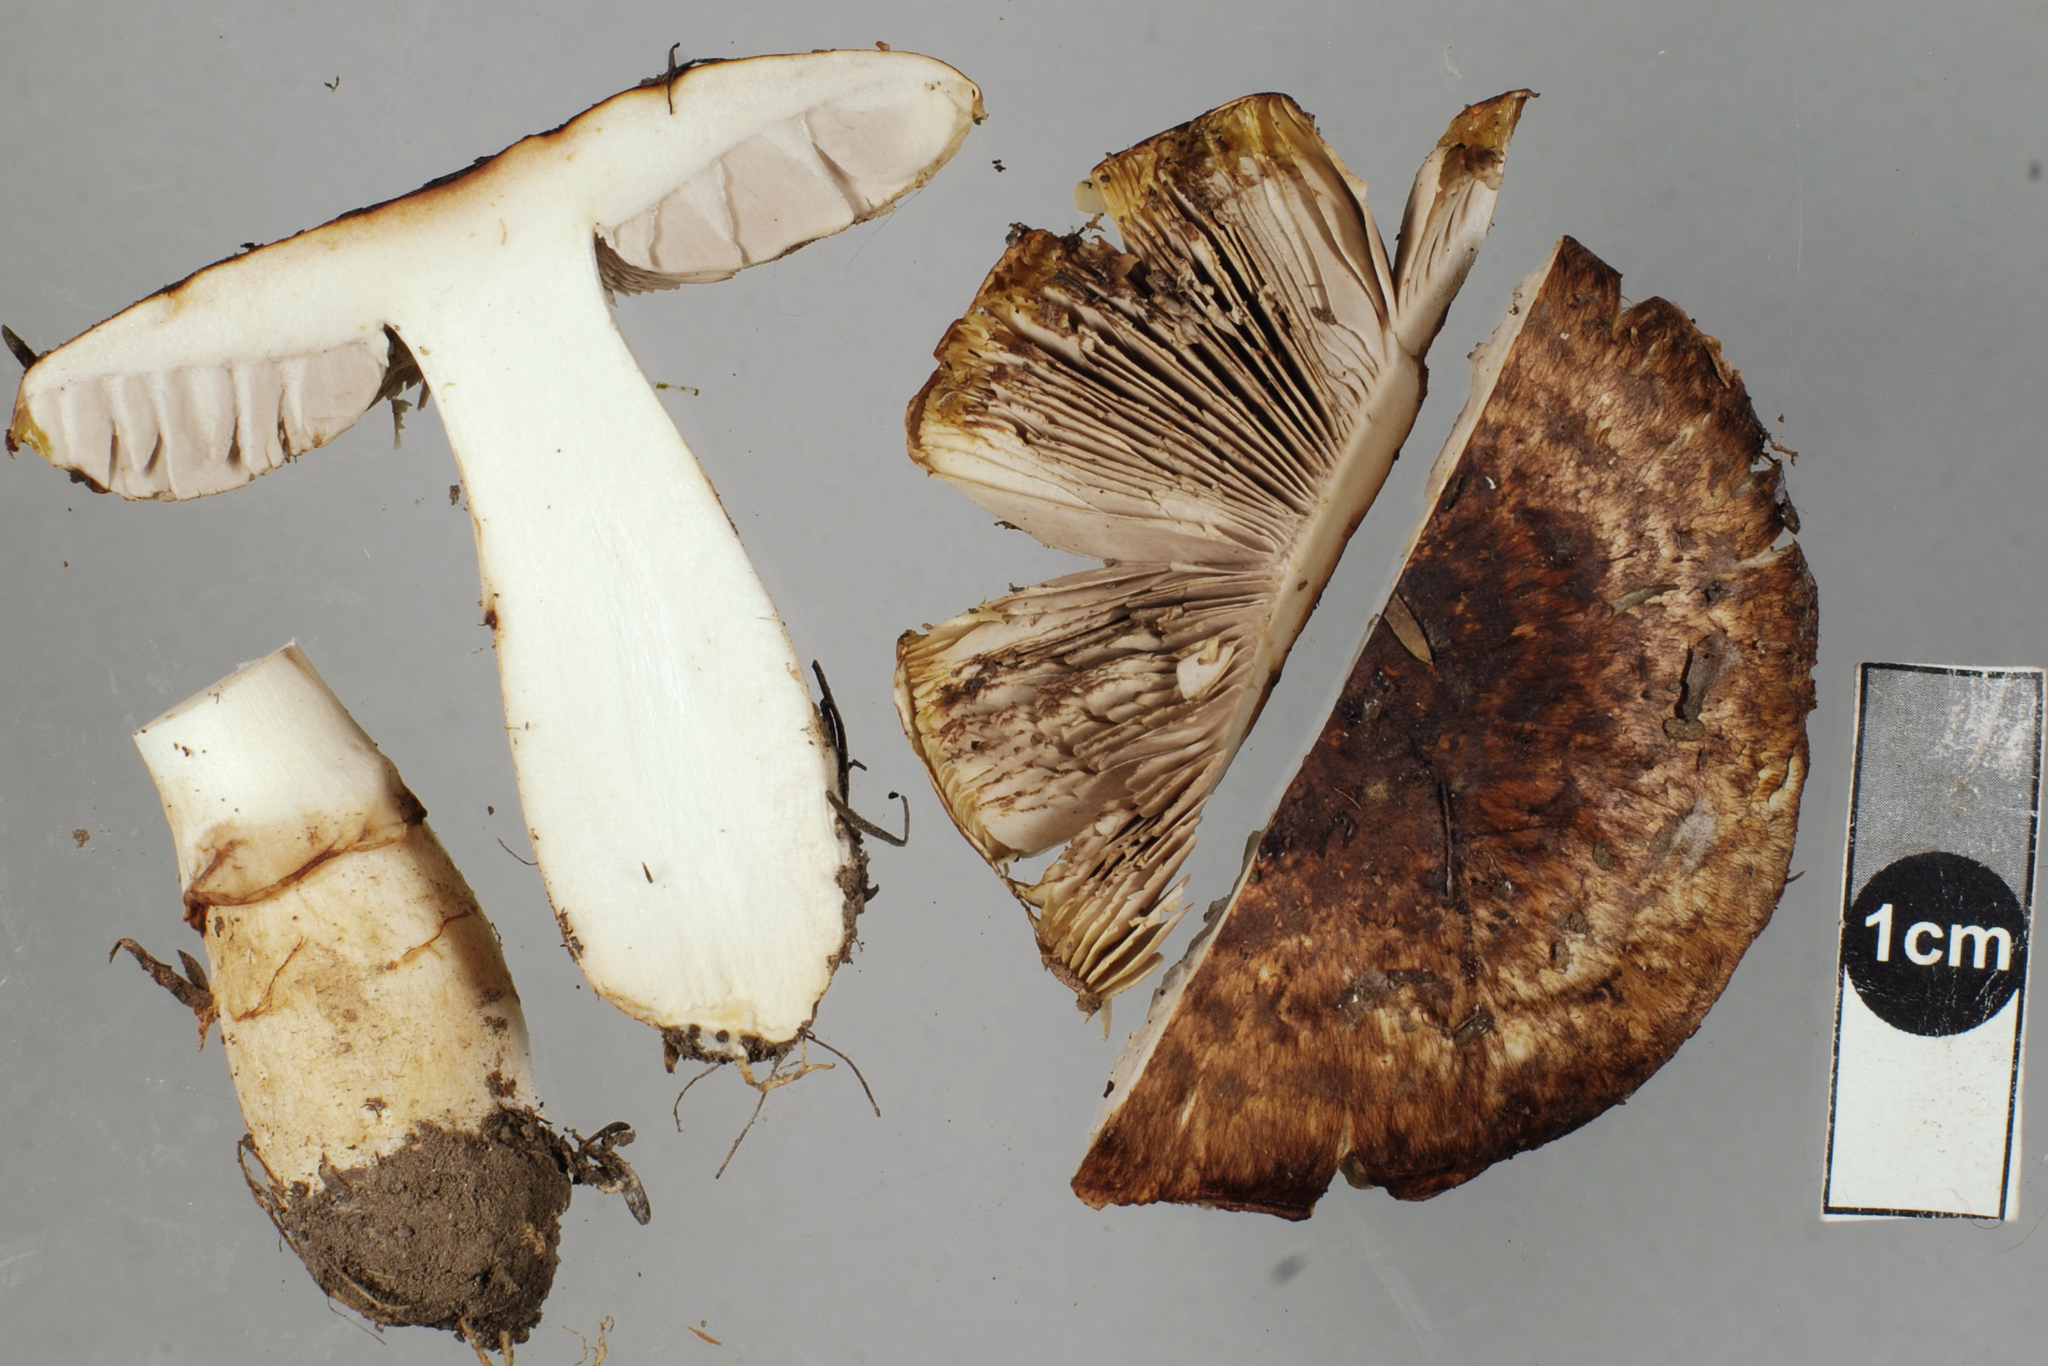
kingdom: Fungi
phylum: Basidiomycota
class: Agaricomycetes
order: Agaricales
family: Agaricaceae
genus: Agaricus
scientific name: Agaricus horakianus
